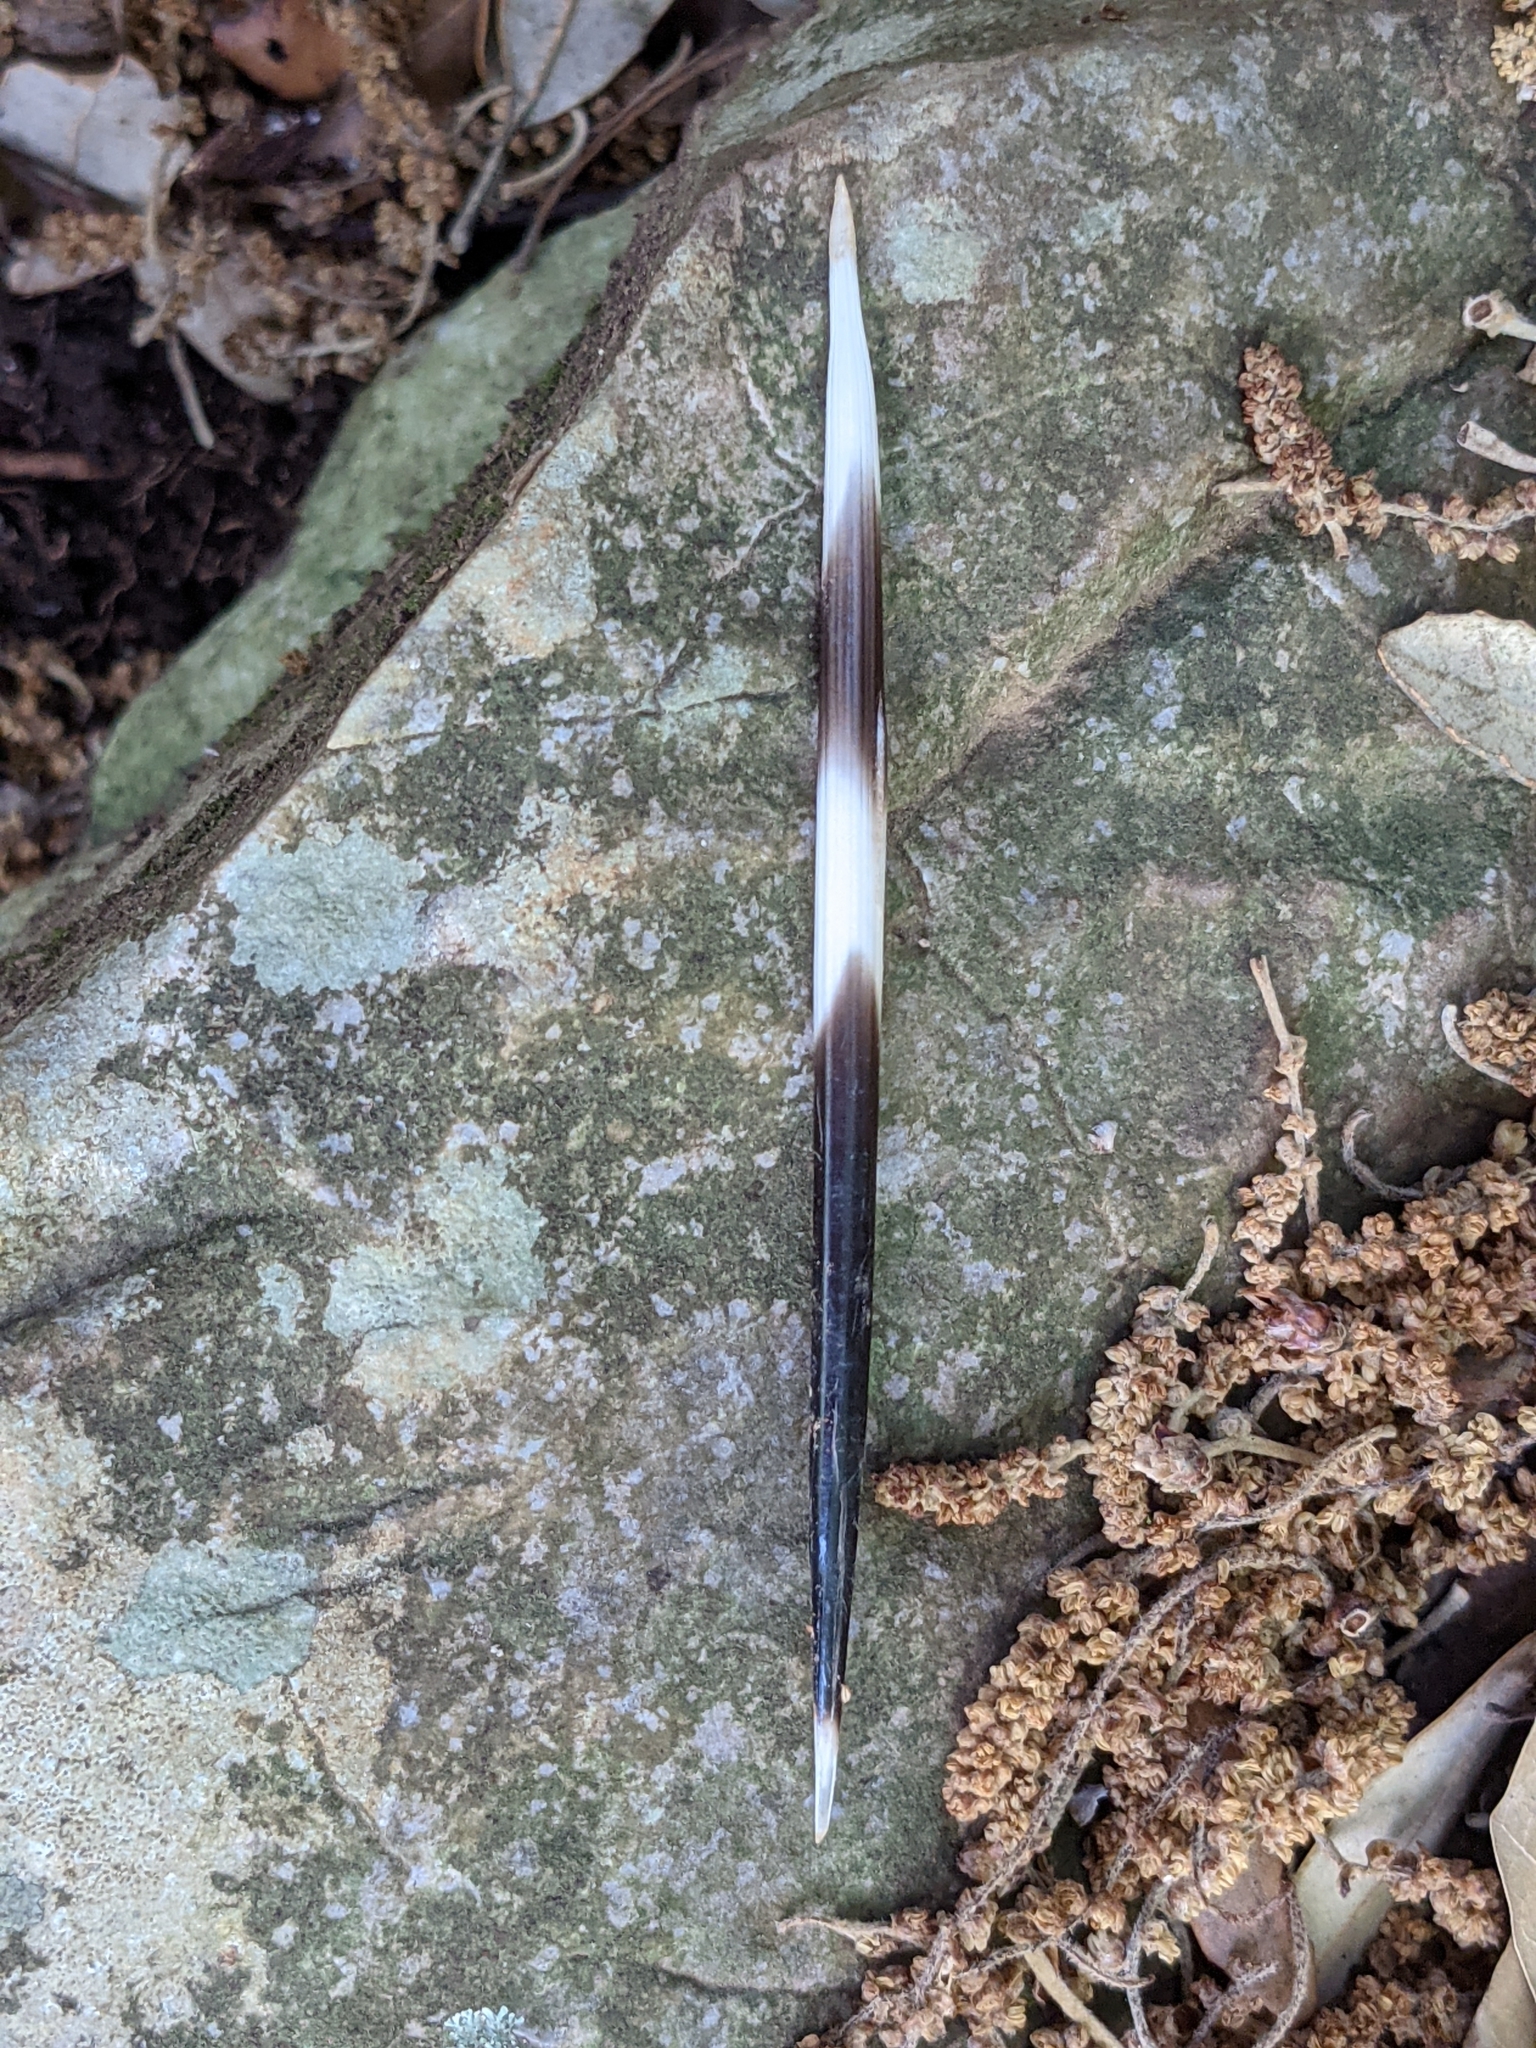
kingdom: Animalia
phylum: Chordata
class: Mammalia
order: Rodentia
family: Hystricidae
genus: Hystrix
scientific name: Hystrix cristata
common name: Crested porcupine
